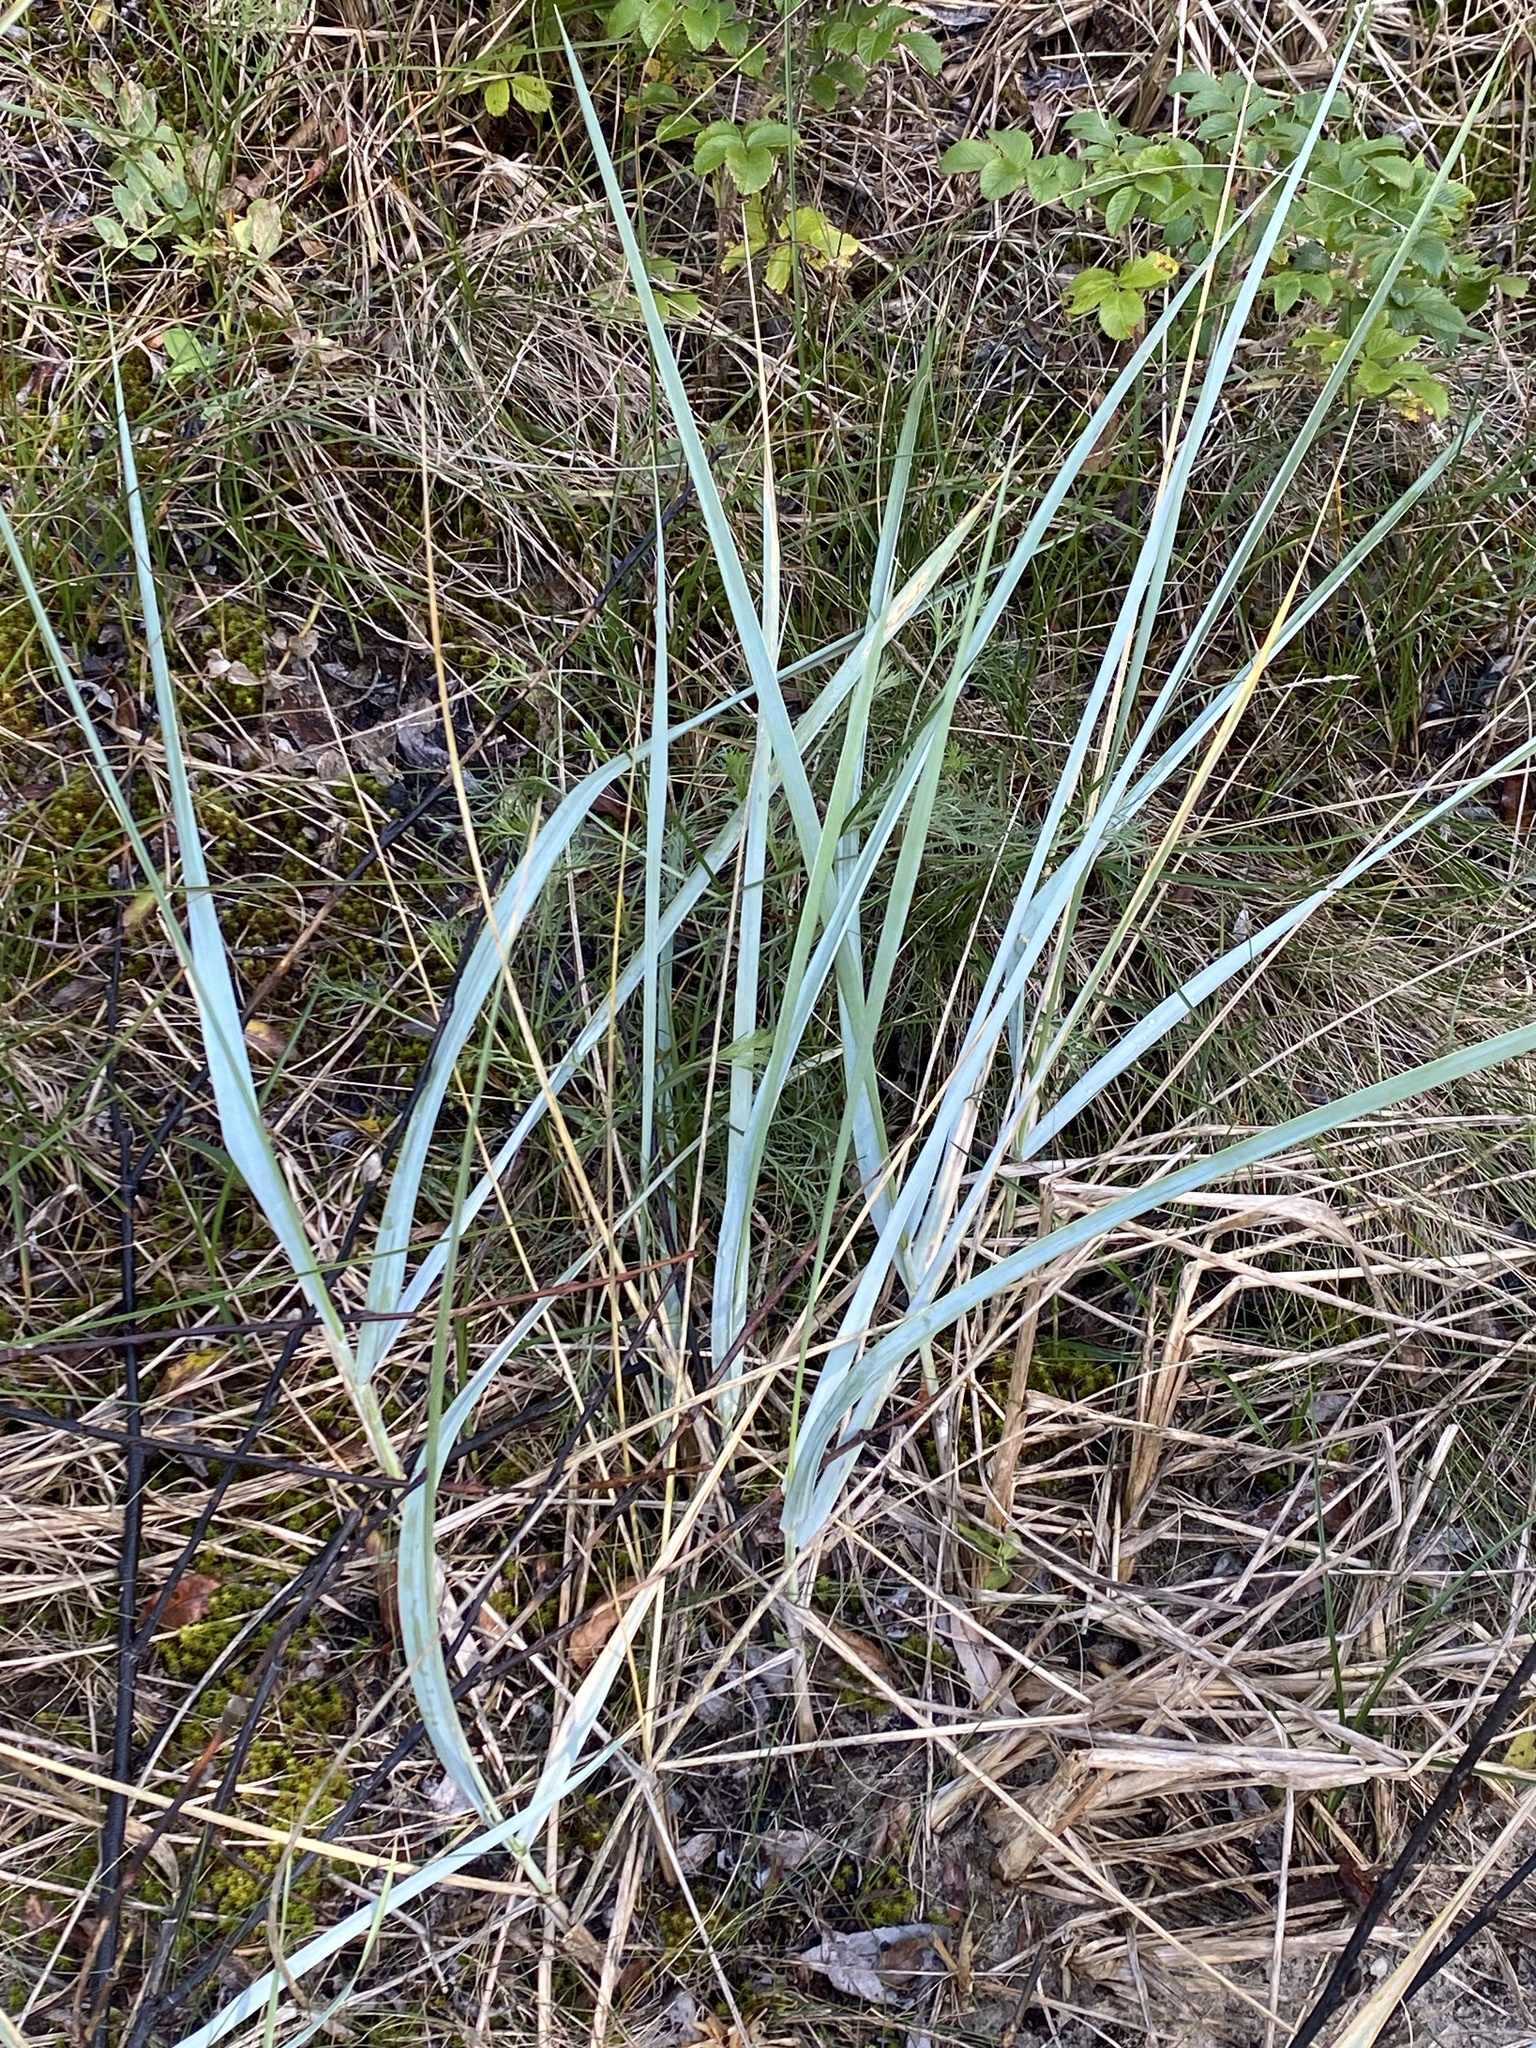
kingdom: Plantae
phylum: Tracheophyta
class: Liliopsida
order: Poales
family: Poaceae
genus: Leymus
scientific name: Leymus arenarius
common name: Lyme-grass
